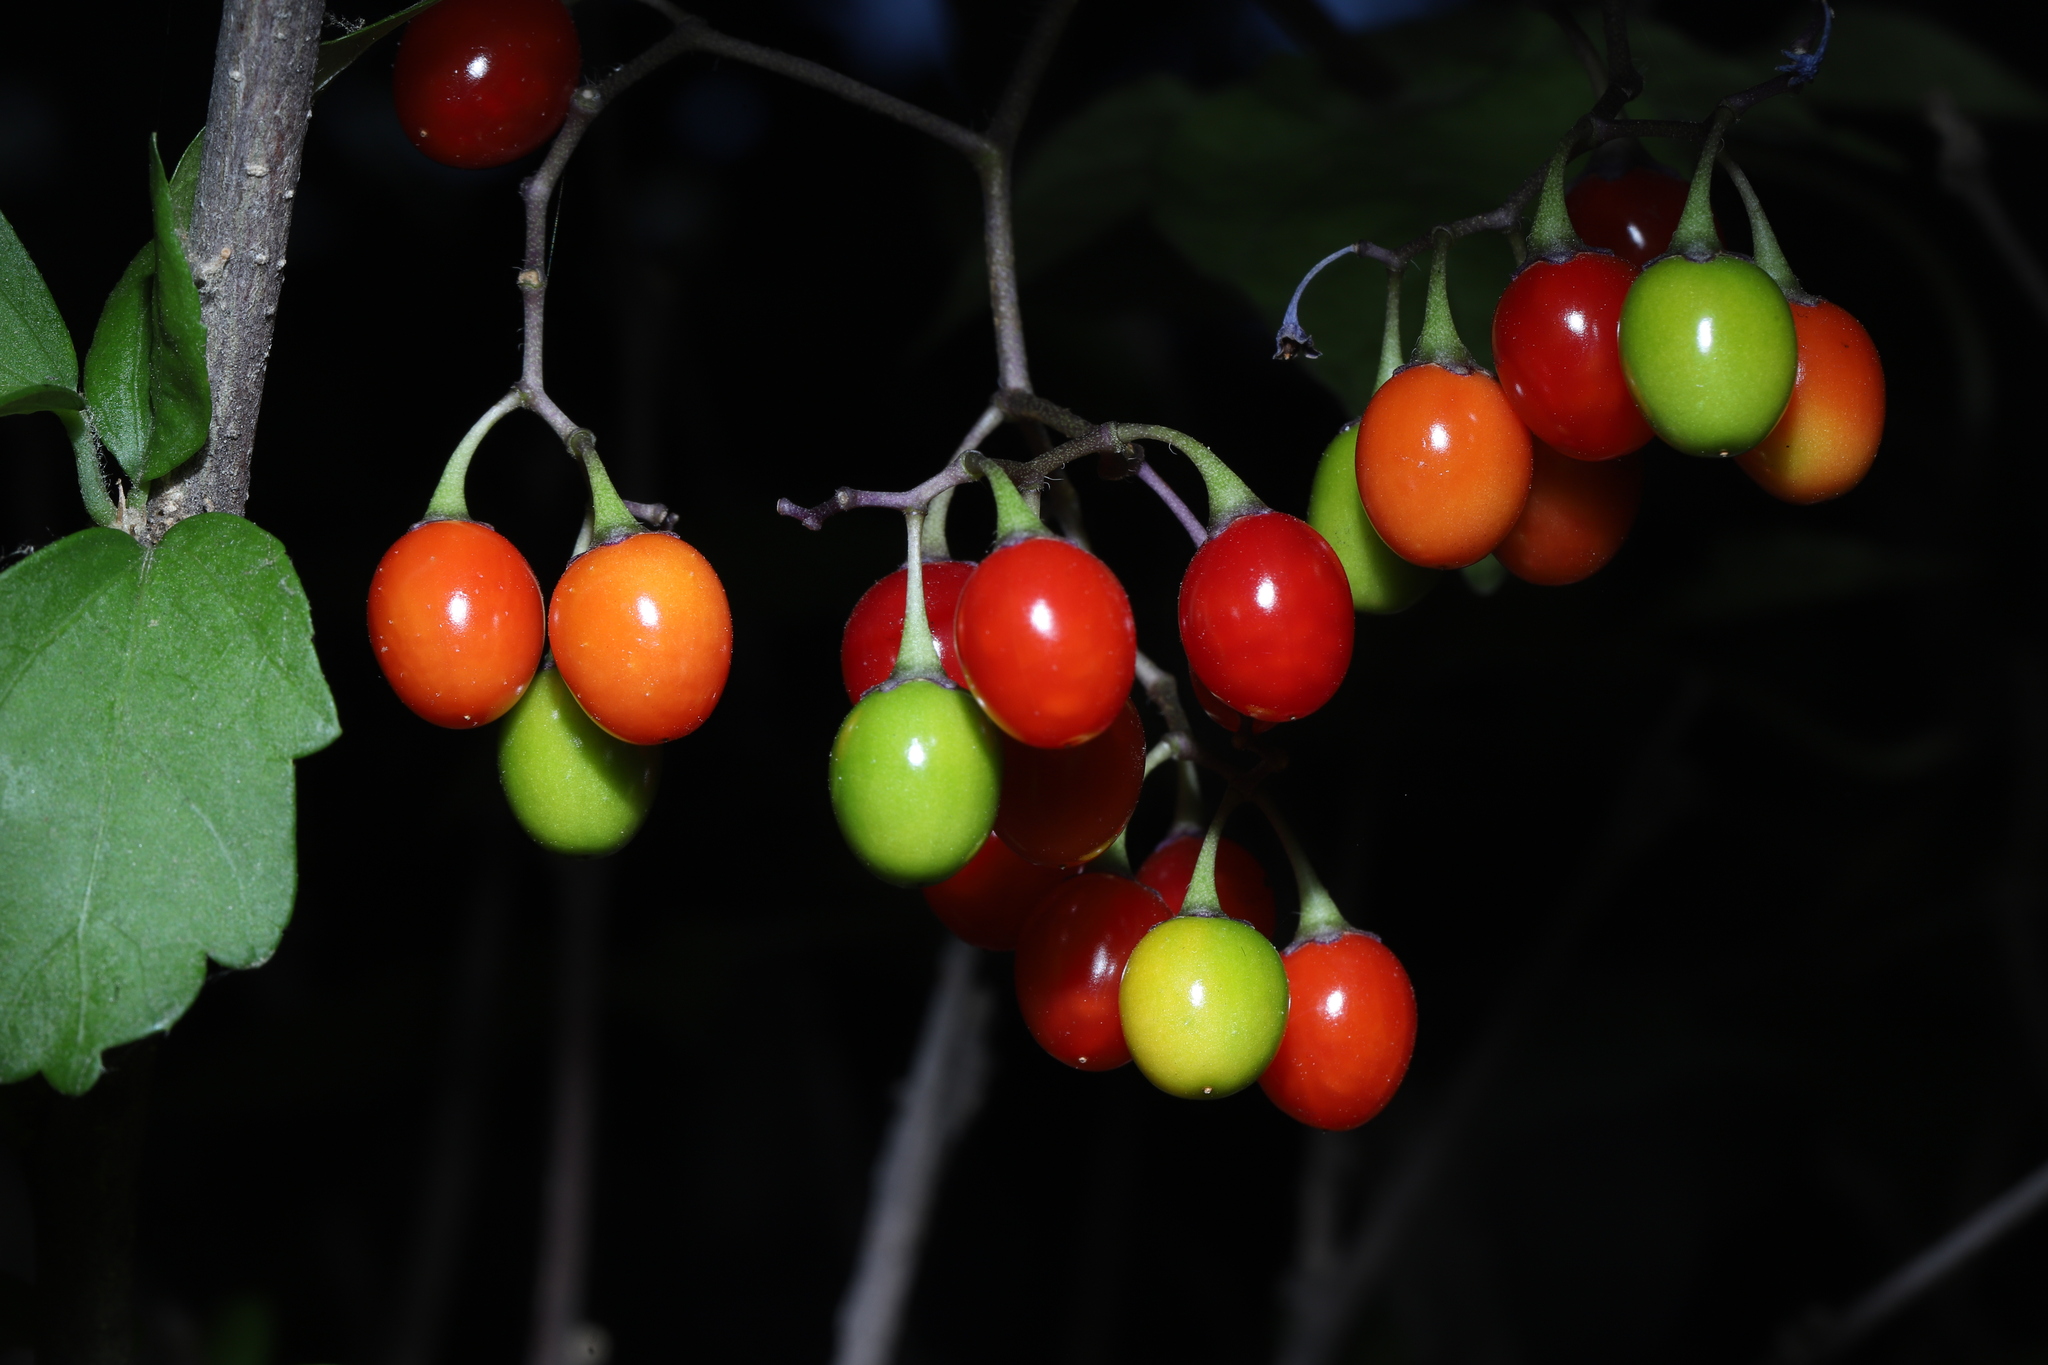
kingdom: Plantae
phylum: Tracheophyta
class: Magnoliopsida
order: Solanales
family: Solanaceae
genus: Solanum
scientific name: Solanum dulcamara
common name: Climbing nightshade
